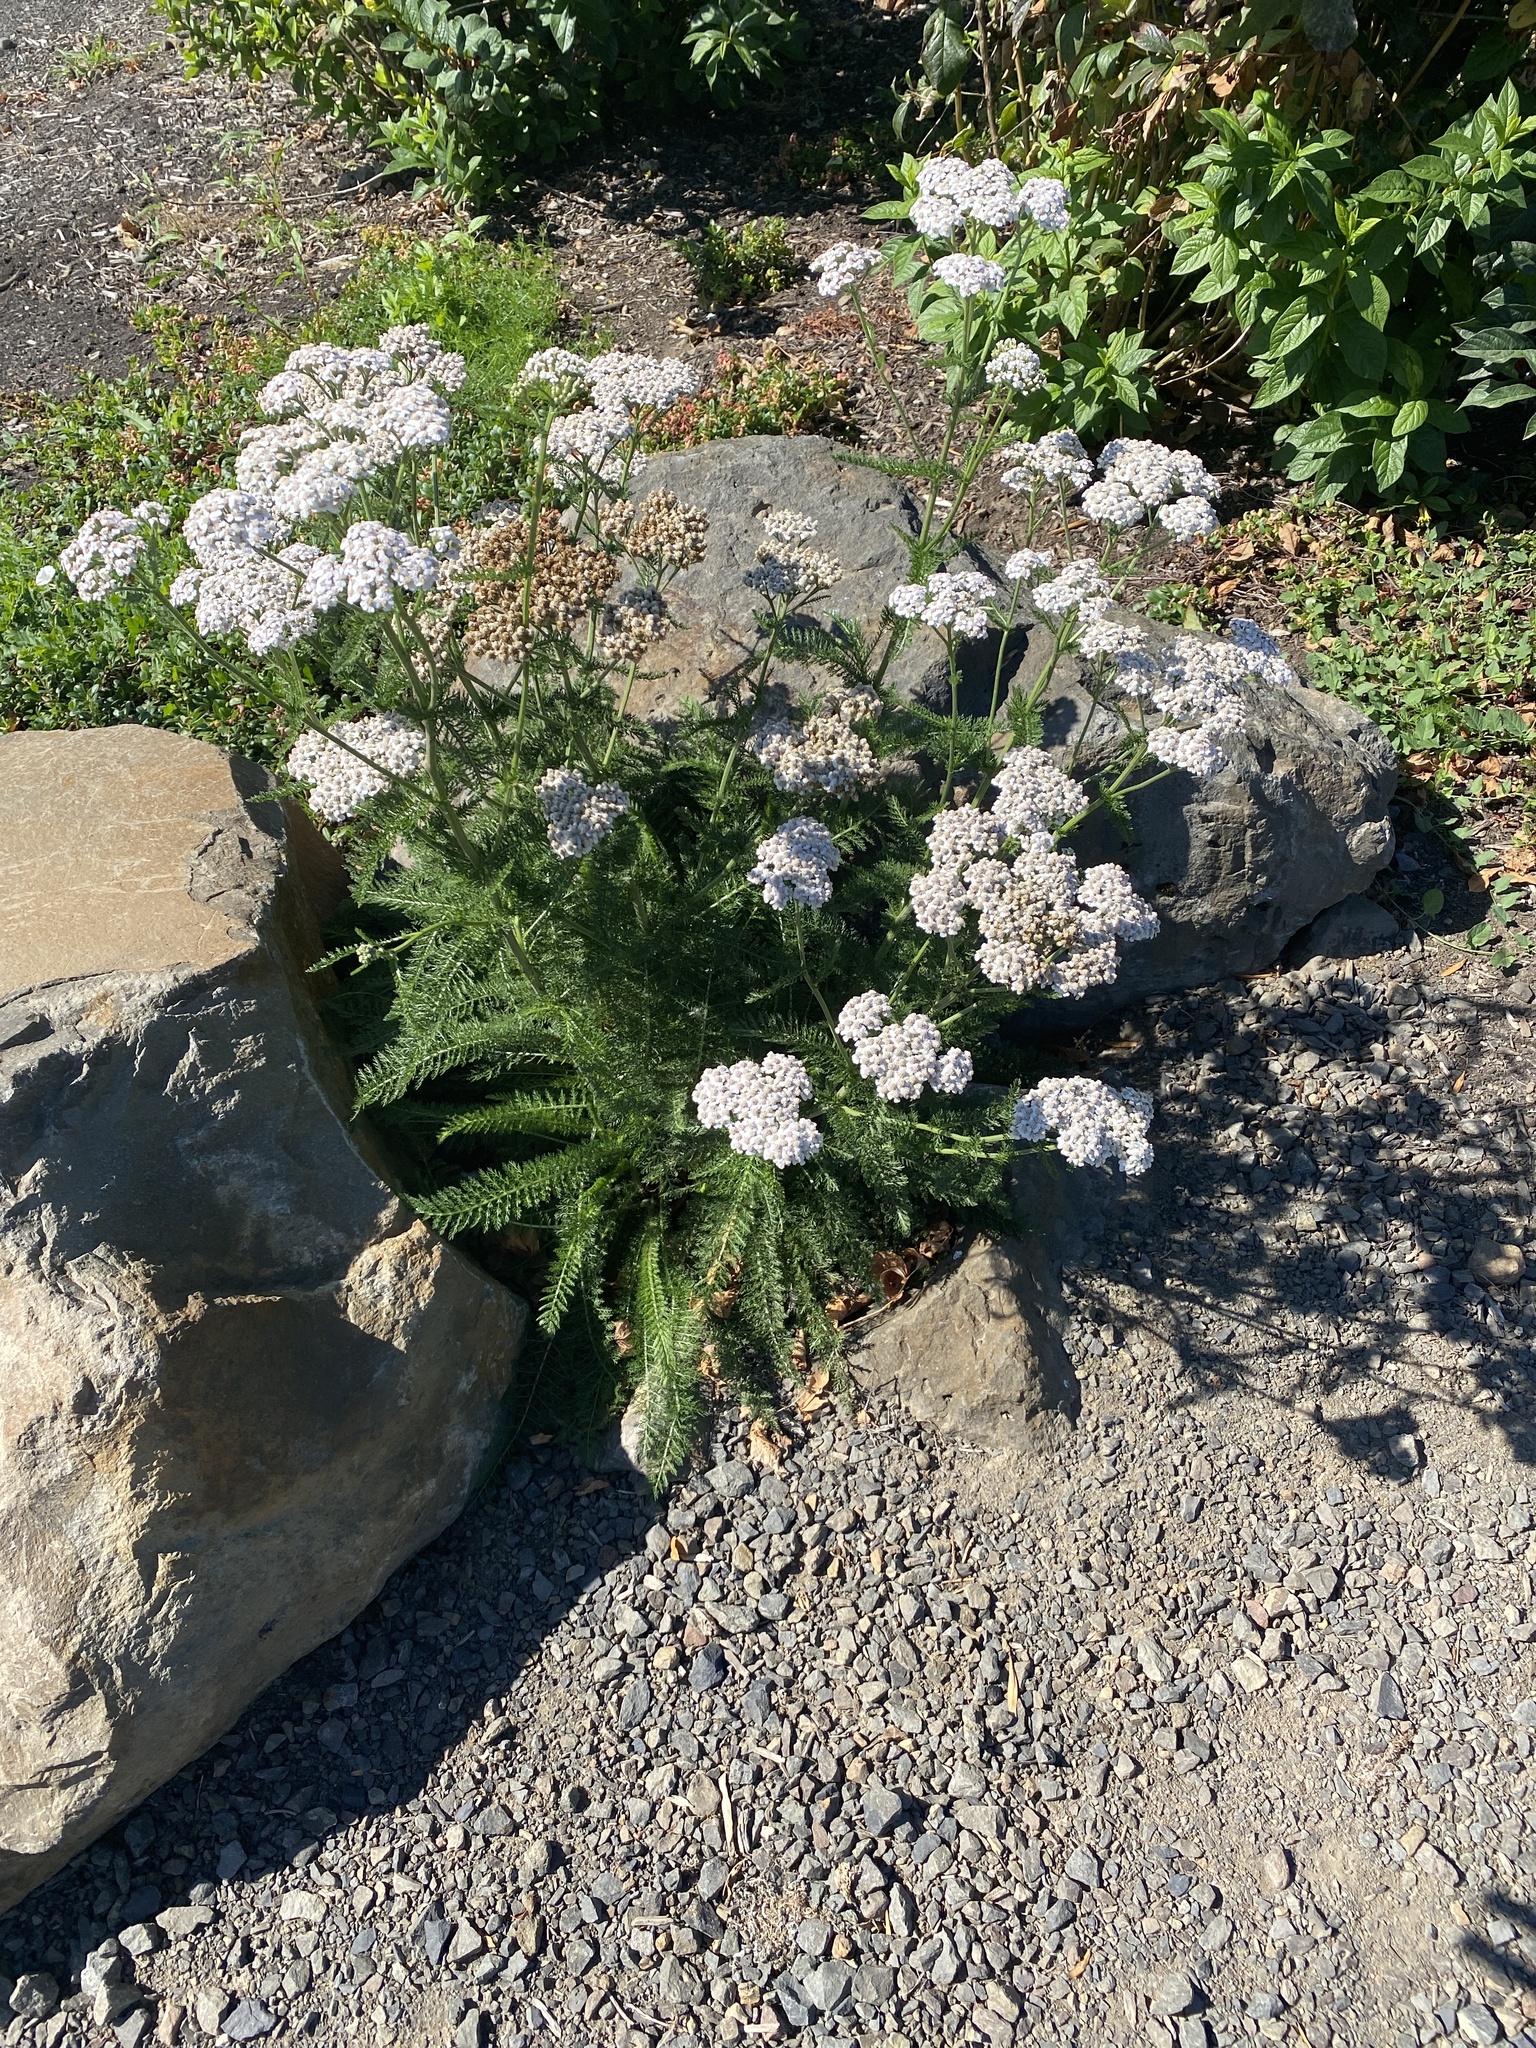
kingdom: Plantae
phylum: Tracheophyta
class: Magnoliopsida
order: Asterales
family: Asteraceae
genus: Achillea
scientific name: Achillea millefolium
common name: Yarrow
